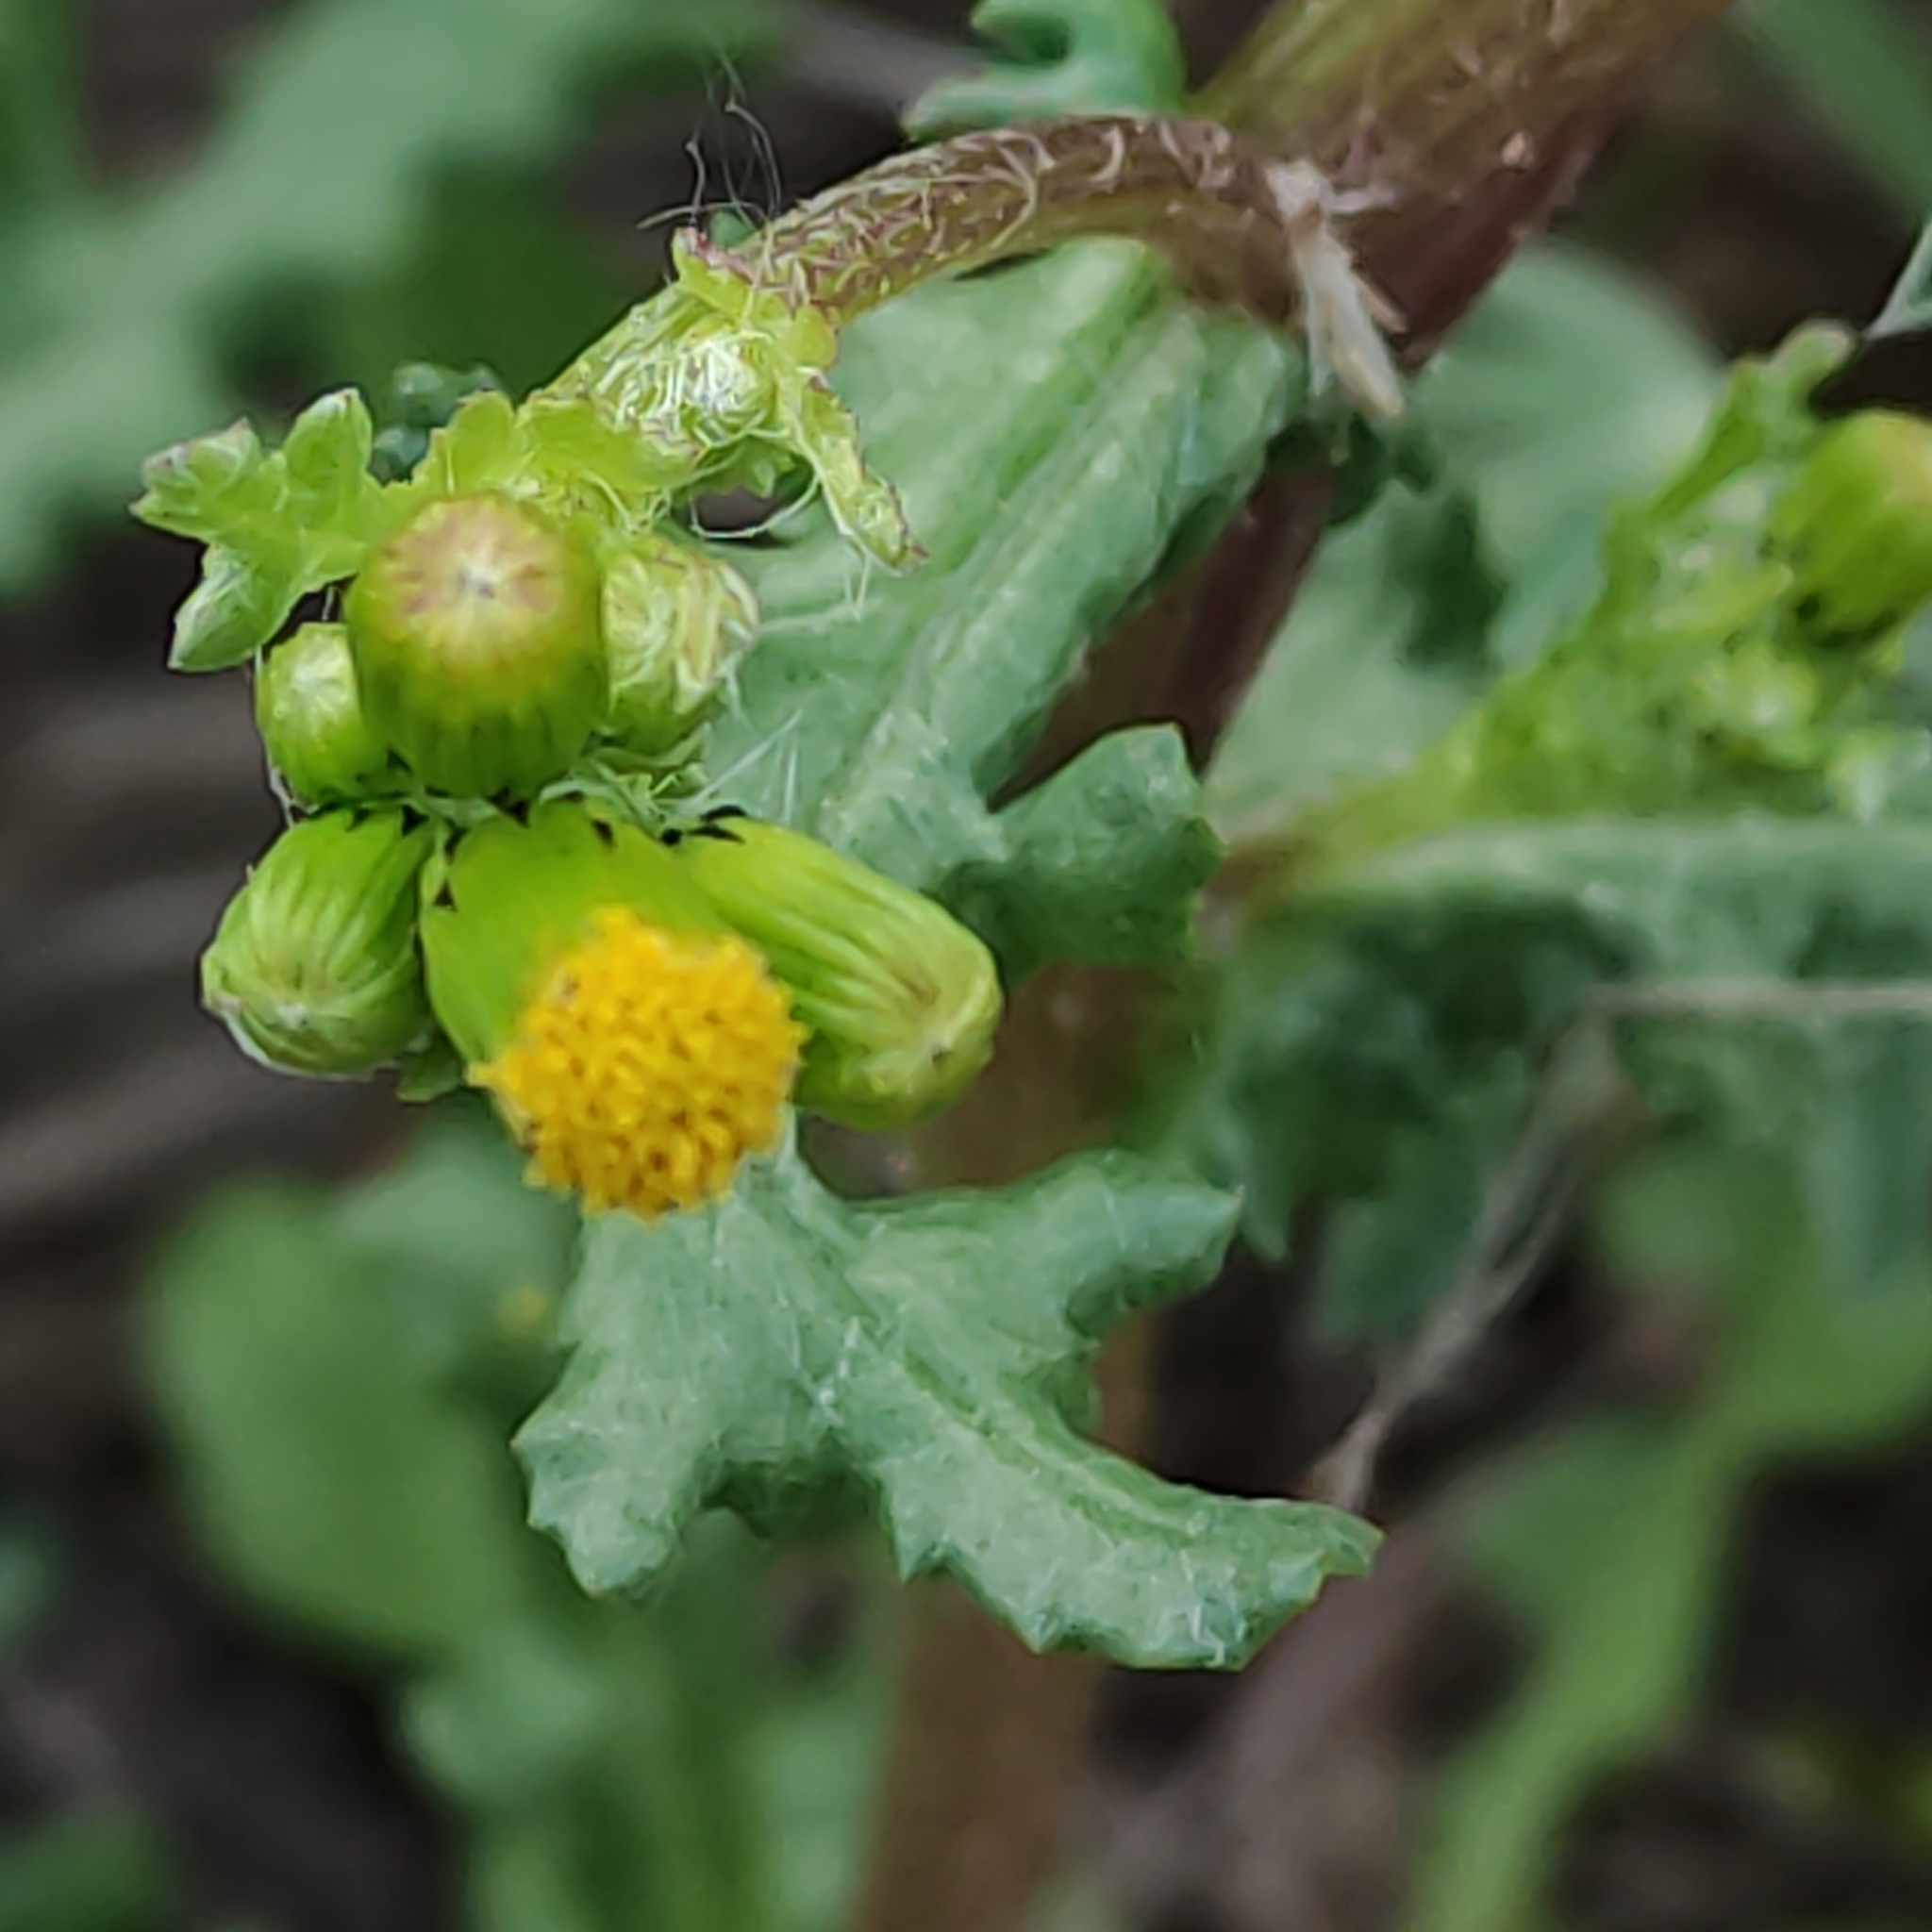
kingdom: Plantae
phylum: Tracheophyta
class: Magnoliopsida
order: Asterales
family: Asteraceae
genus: Senecio
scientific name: Senecio vulgaris
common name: Old-man-in-the-spring
